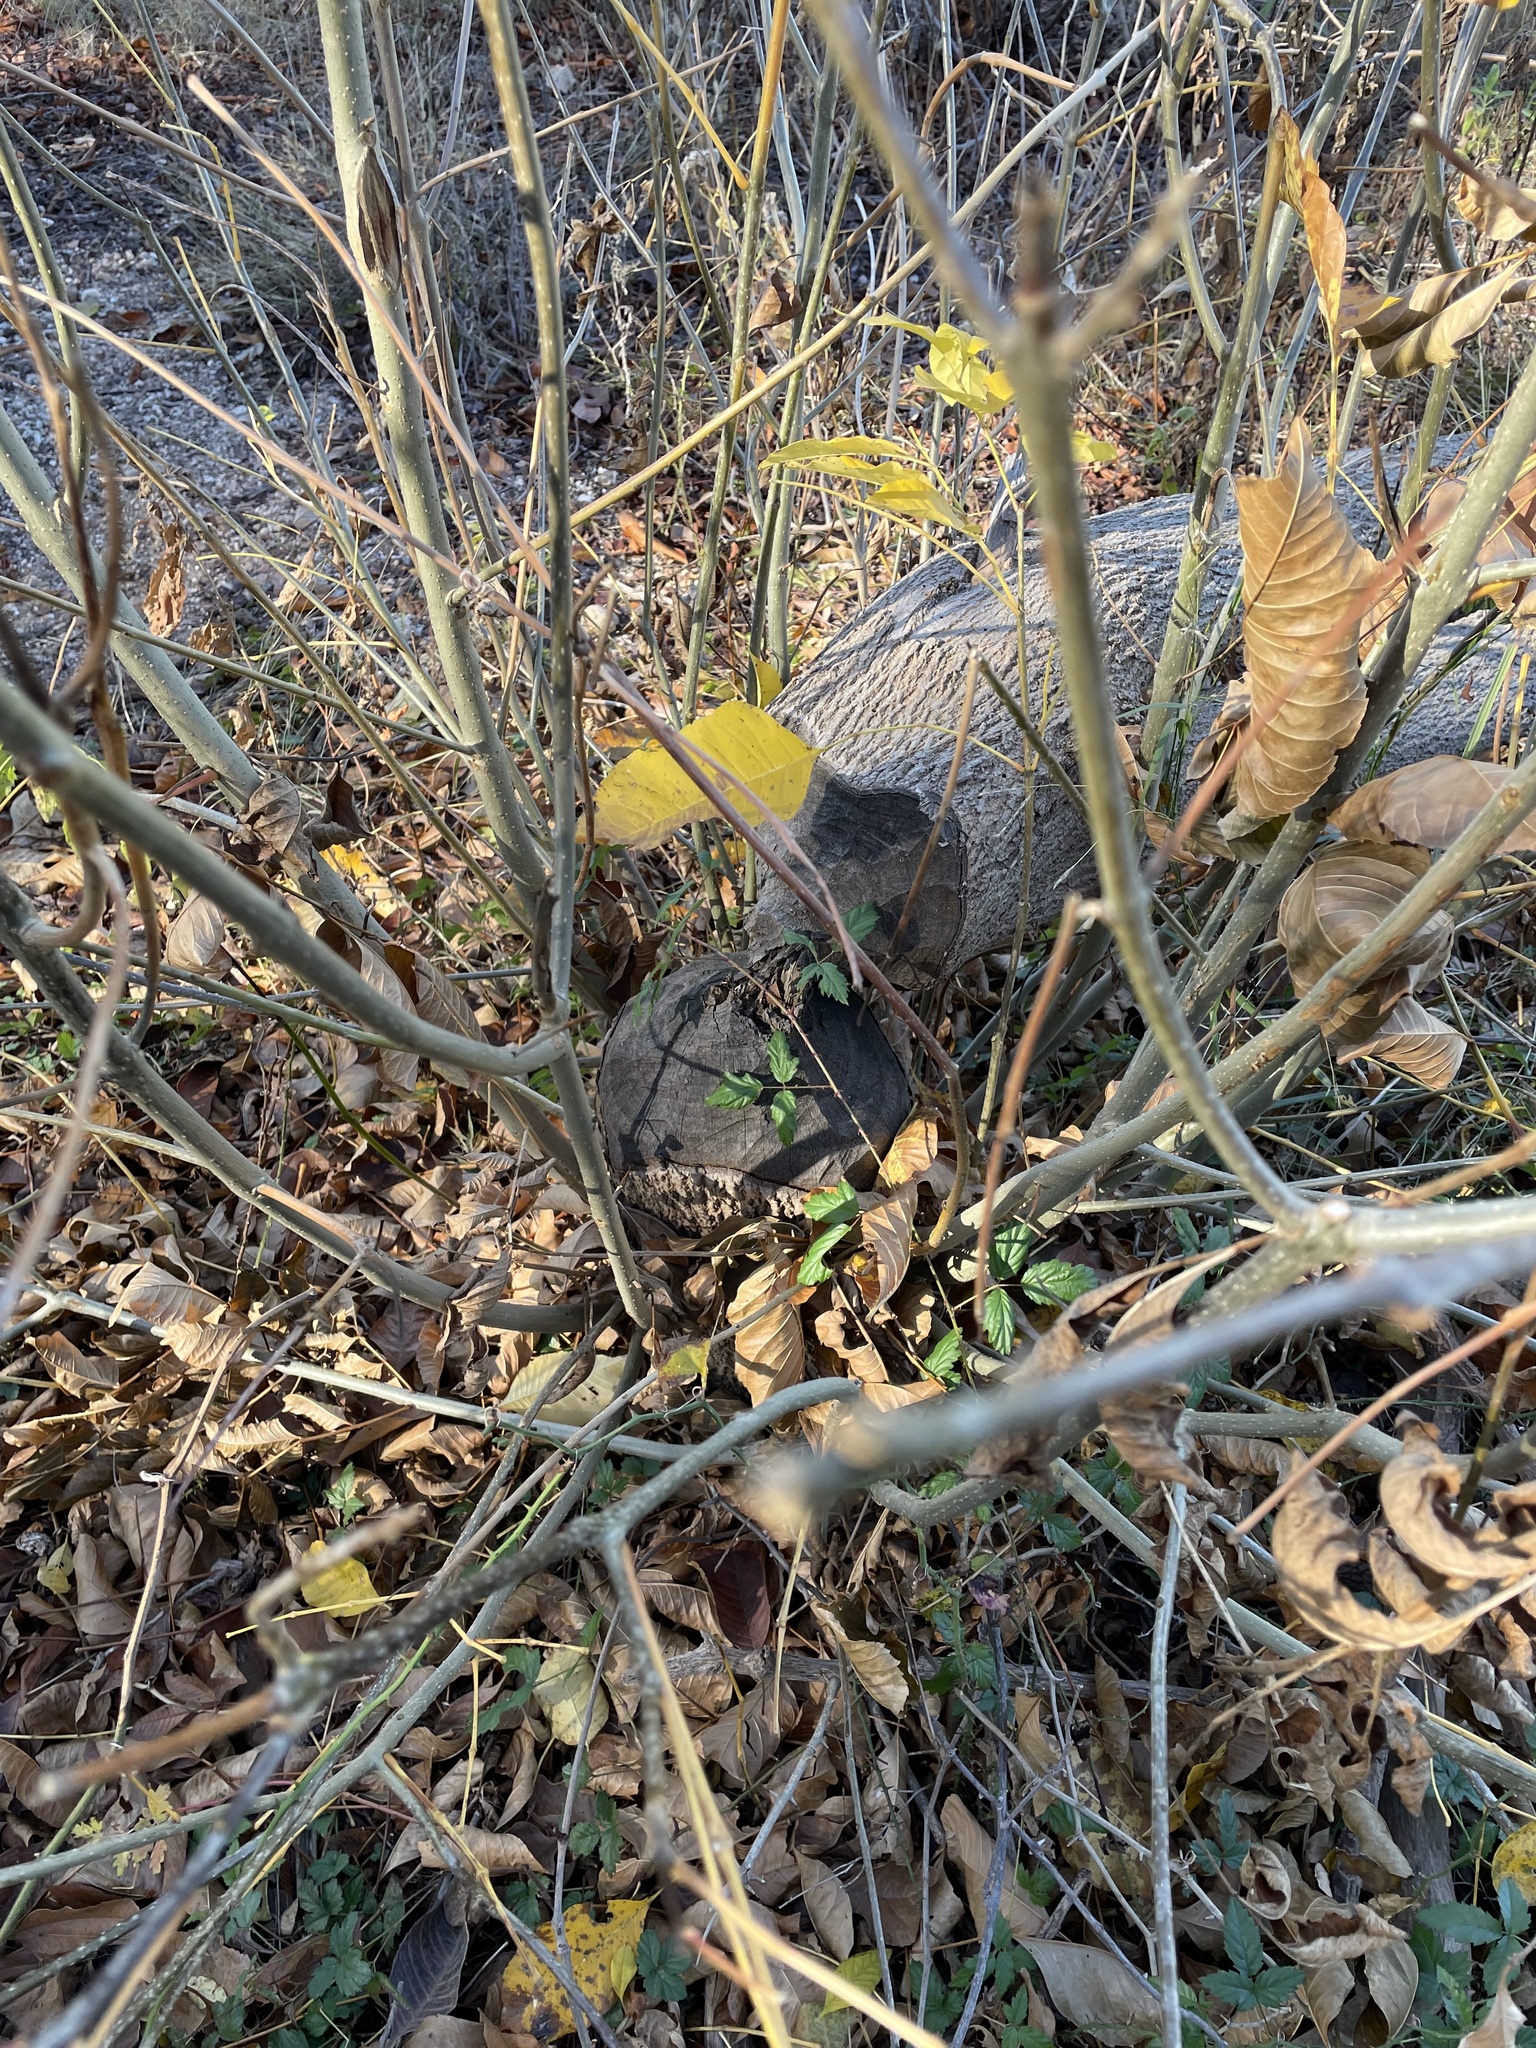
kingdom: Animalia
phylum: Chordata
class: Mammalia
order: Rodentia
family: Castoridae
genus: Castor
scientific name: Castor canadensis
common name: American beaver
